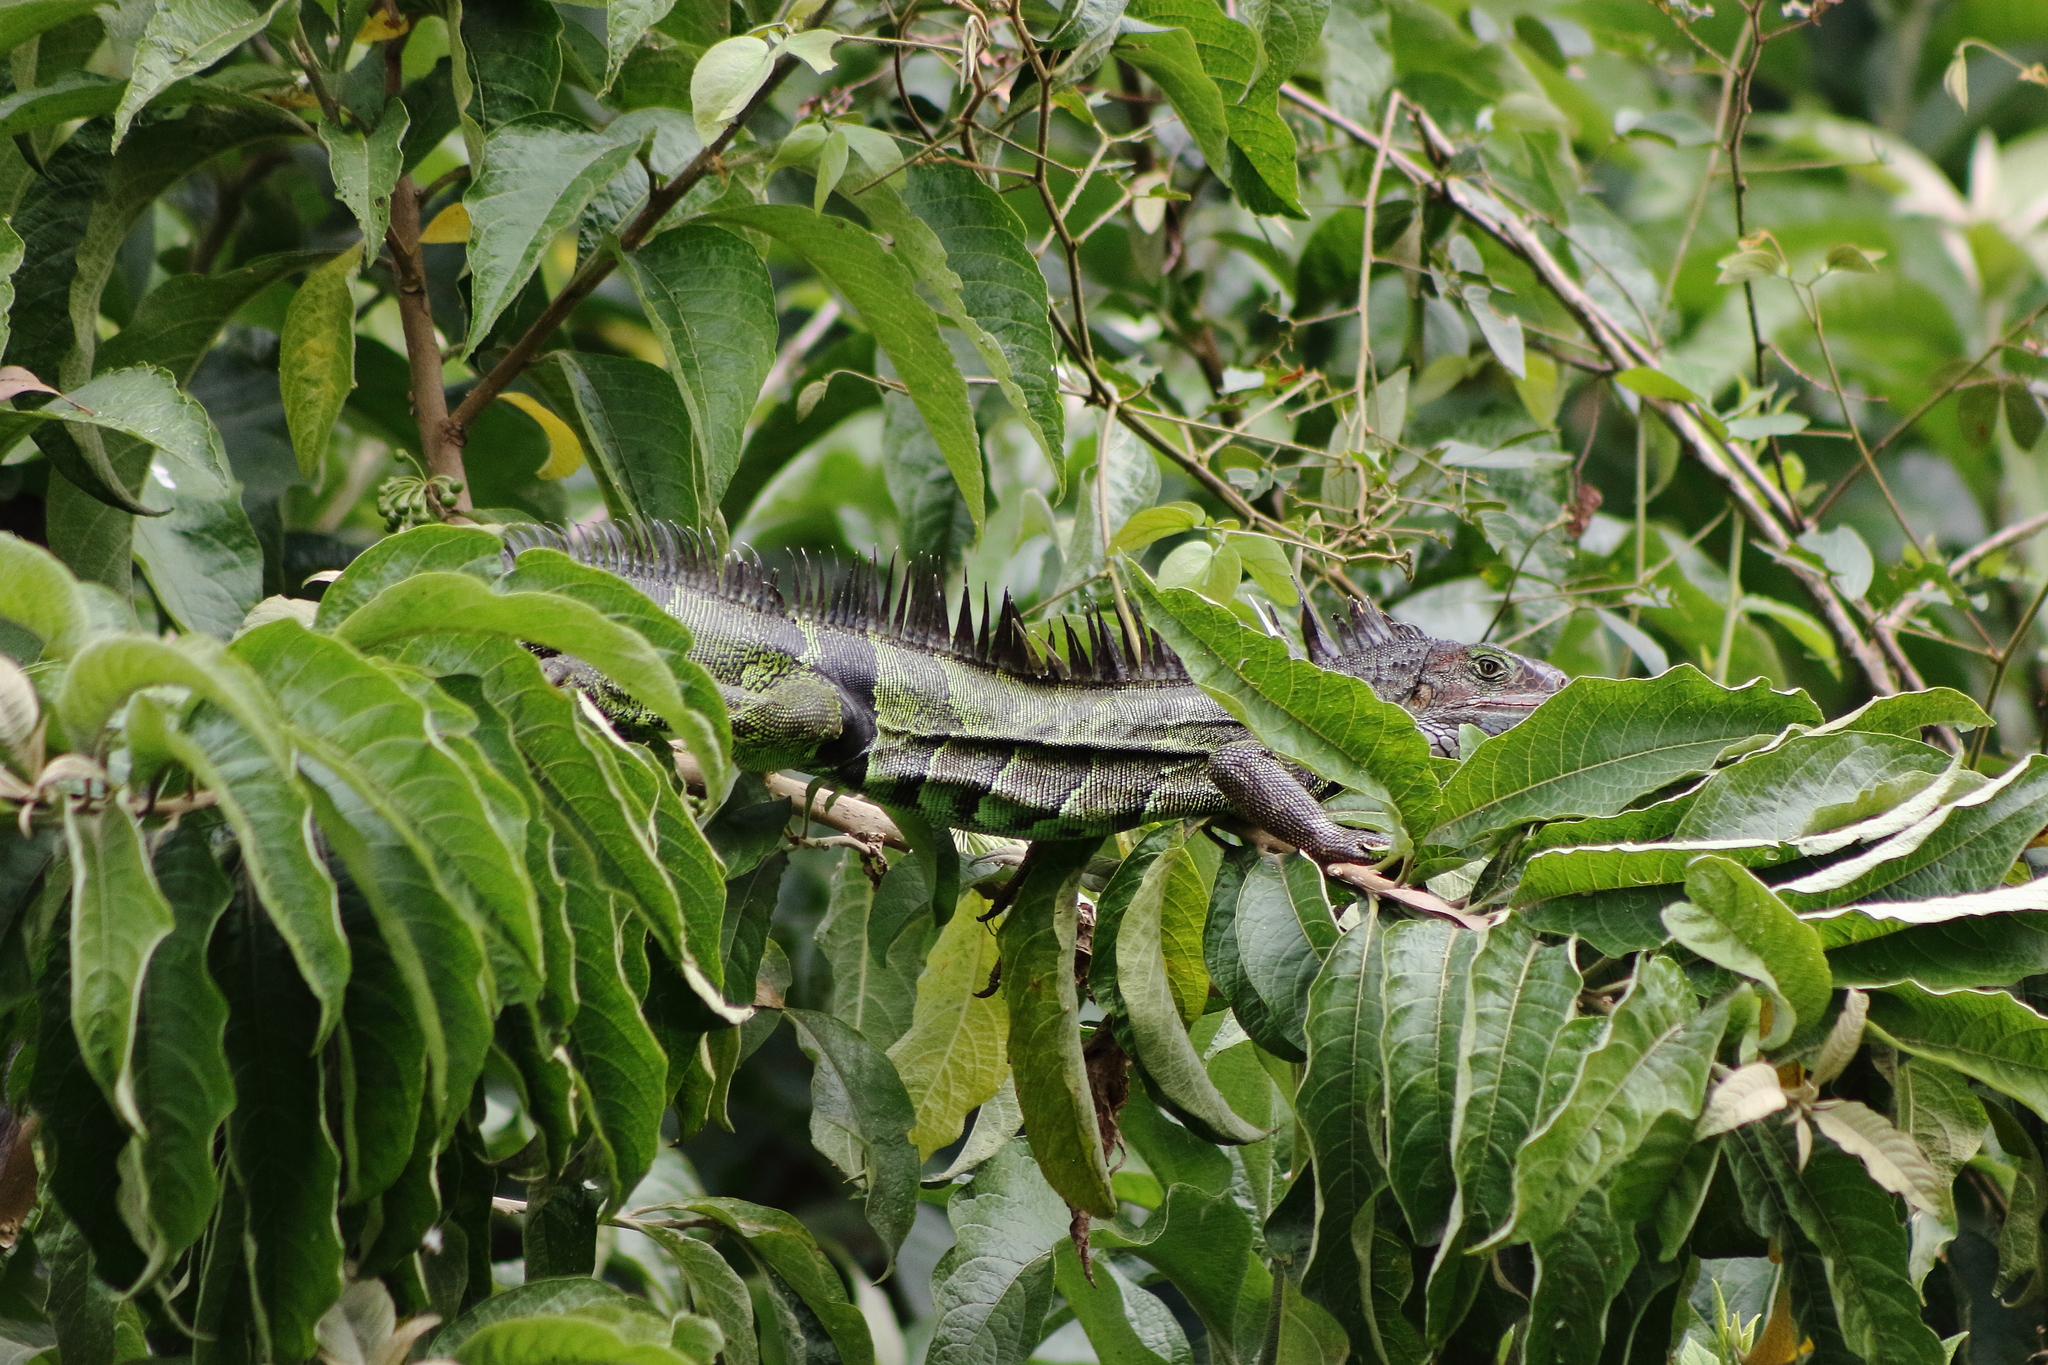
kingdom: Animalia
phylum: Chordata
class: Squamata
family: Iguanidae
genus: Iguana
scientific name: Iguana iguana
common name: Green iguana
